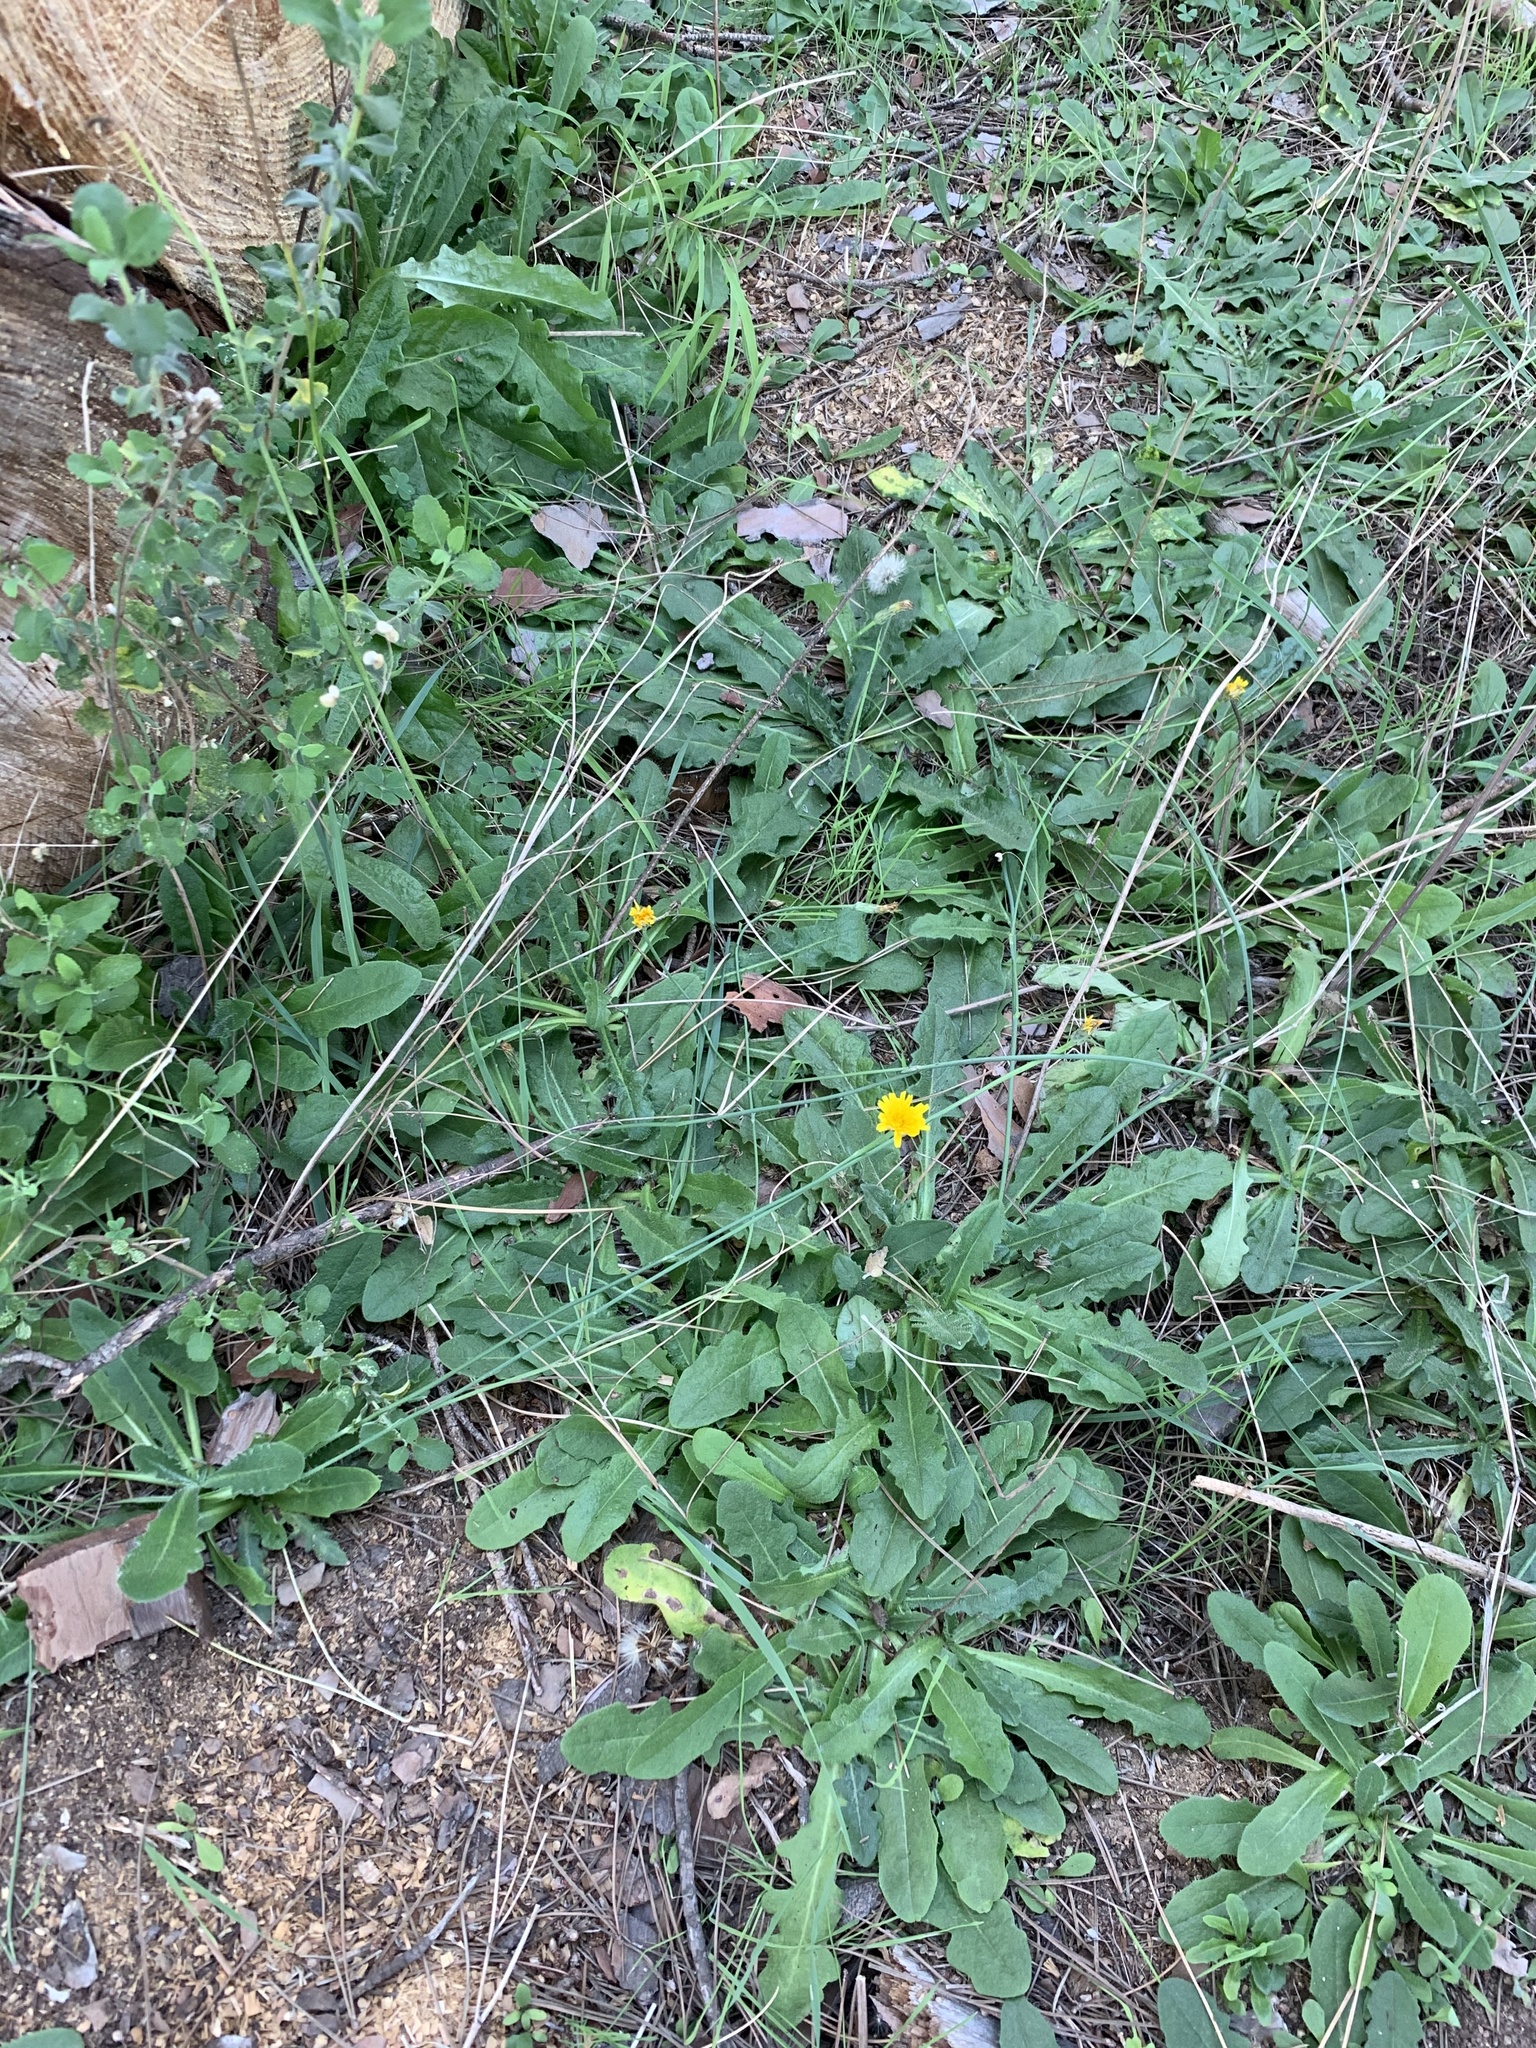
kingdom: Plantae
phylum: Tracheophyta
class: Magnoliopsida
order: Asterales
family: Asteraceae
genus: Hypochaeris
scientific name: Hypochaeris radicata
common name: Flatweed
